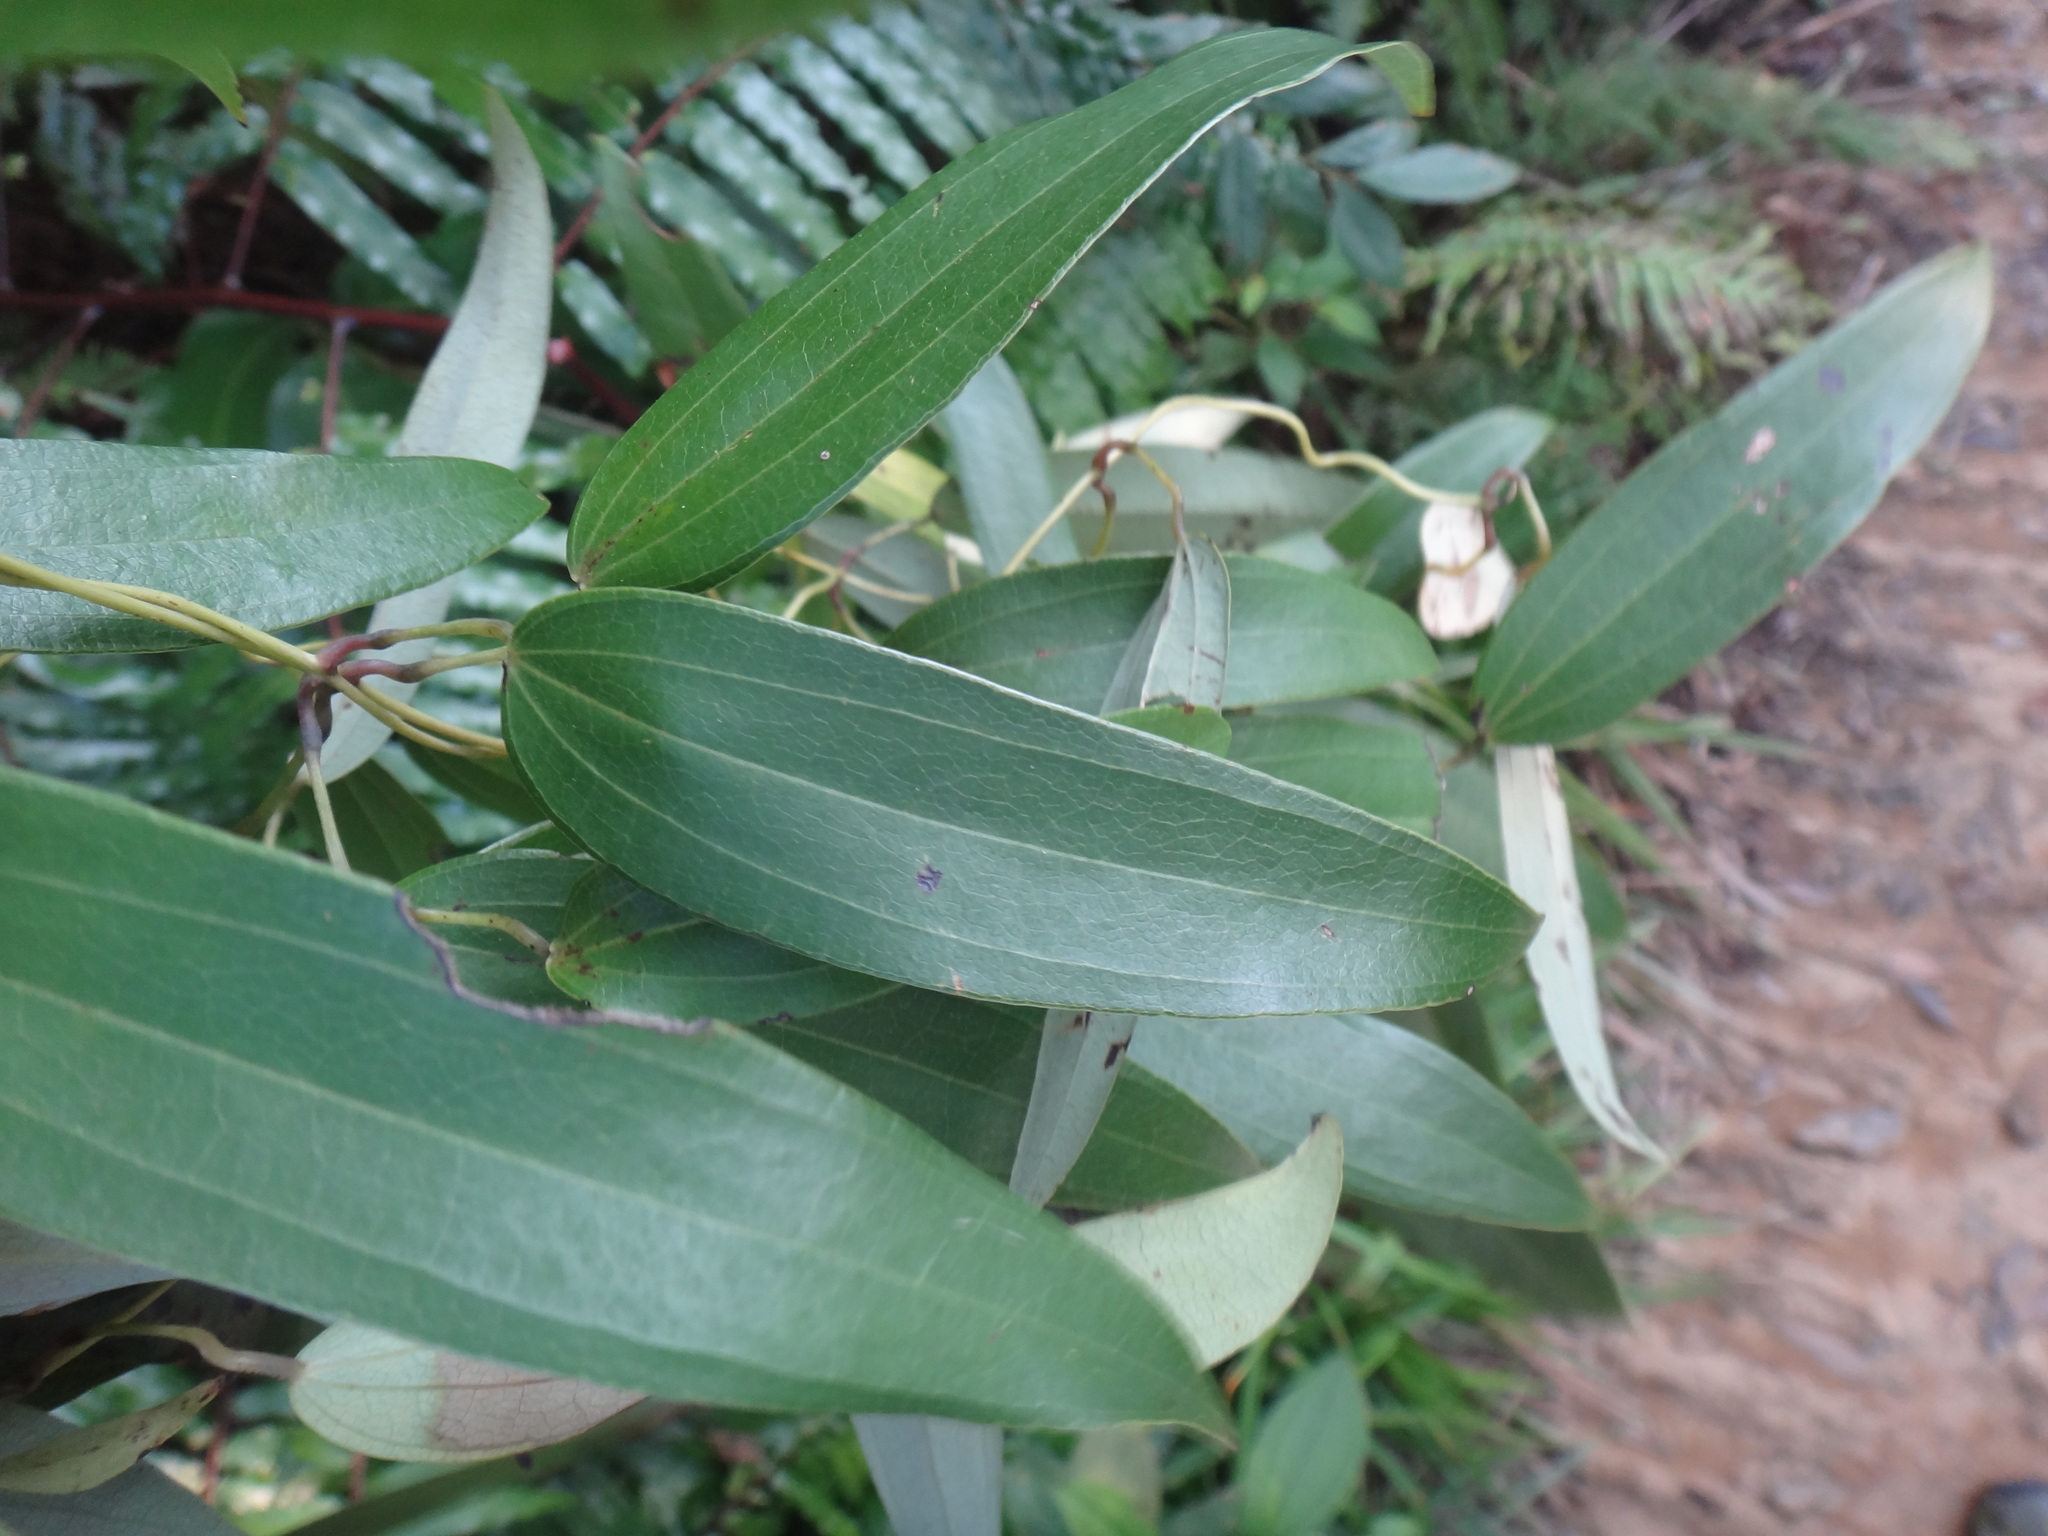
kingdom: Plantae
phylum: Tracheophyta
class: Liliopsida
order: Dioscoreales
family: Dioscoreaceae
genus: Dioscorea
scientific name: Dioscorea cirrhosa
